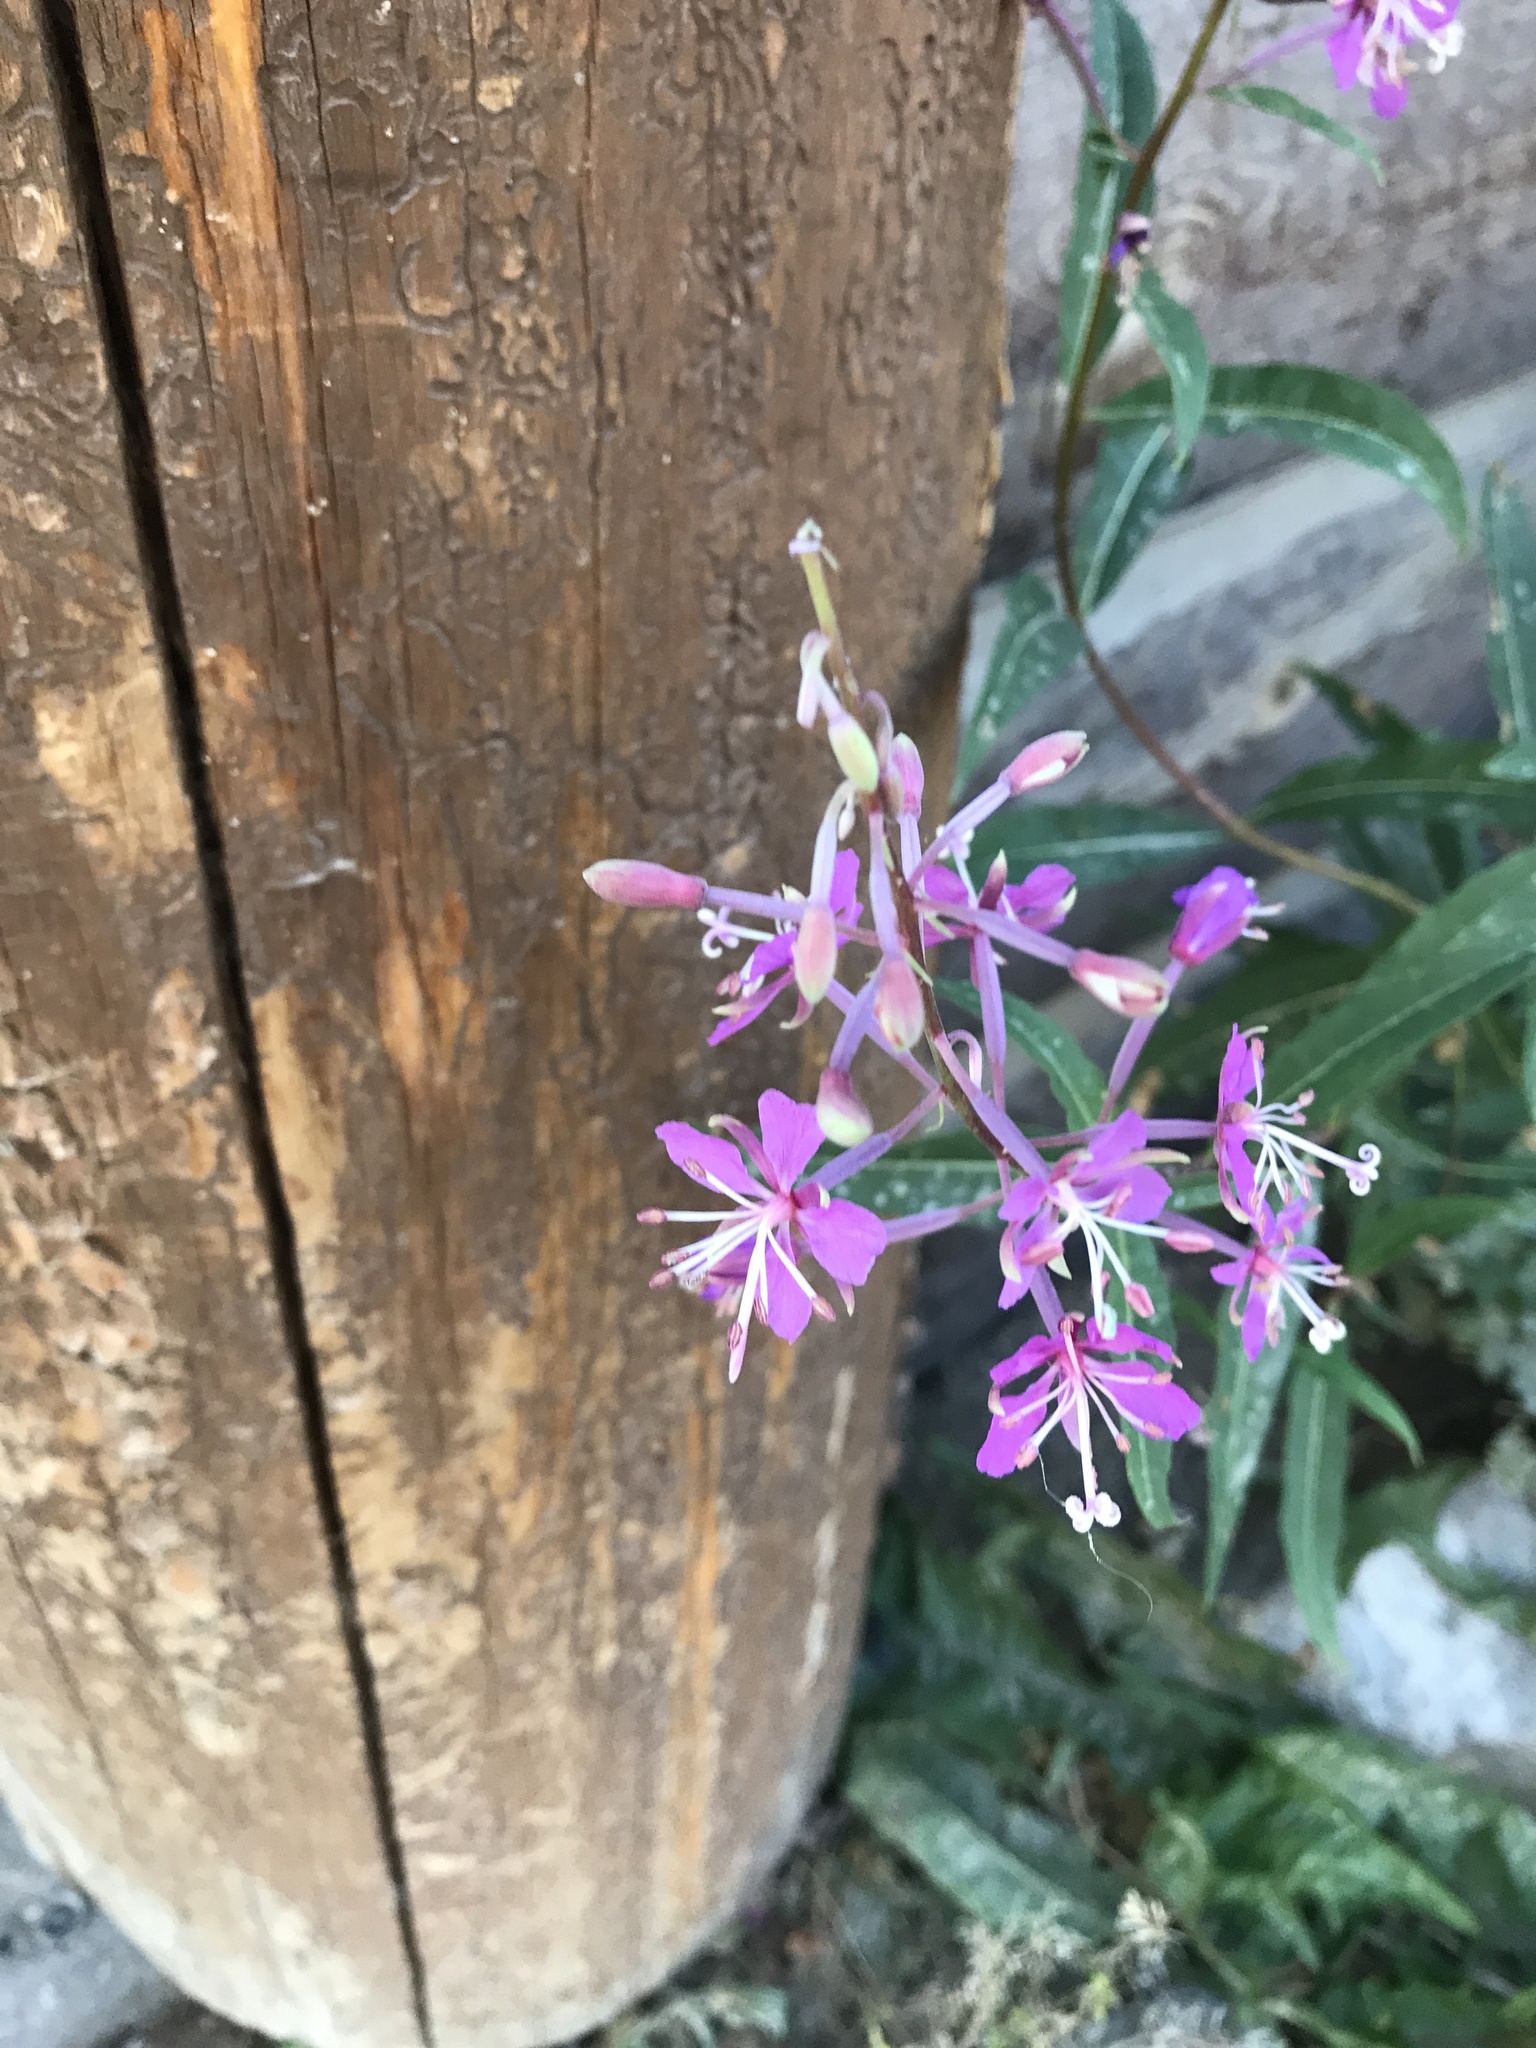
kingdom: Plantae
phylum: Tracheophyta
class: Magnoliopsida
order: Myrtales
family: Onagraceae
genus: Chamaenerion
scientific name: Chamaenerion angustifolium
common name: Fireweed
